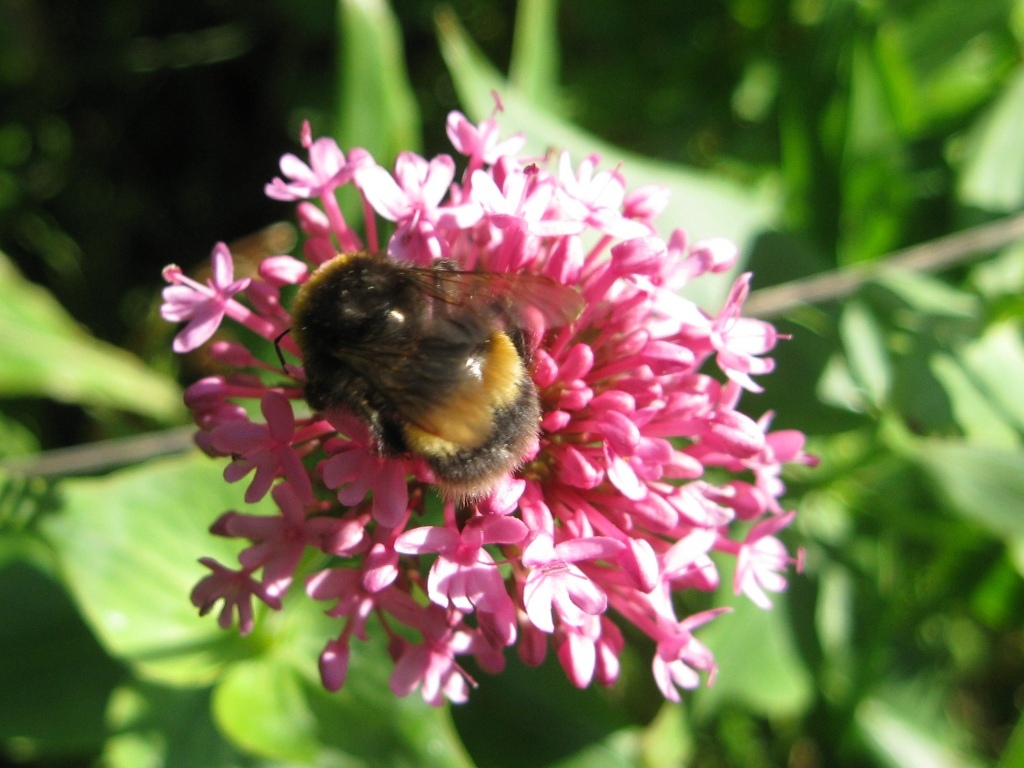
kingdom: Animalia
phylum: Arthropoda
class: Insecta
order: Hymenoptera
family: Apidae
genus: Bombus
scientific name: Bombus terrestris
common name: Buff-tailed bumblebee
